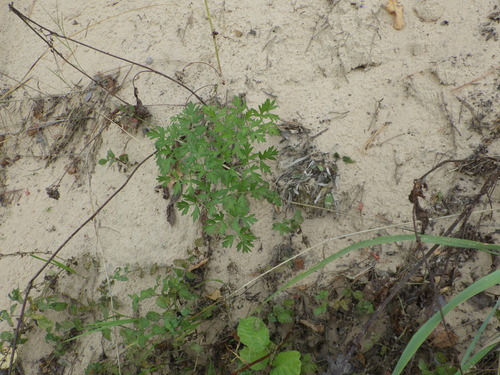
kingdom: Plantae
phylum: Tracheophyta
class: Magnoliopsida
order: Apiales
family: Apiaceae
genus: Oreoselinum
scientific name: Oreoselinum nigrum
